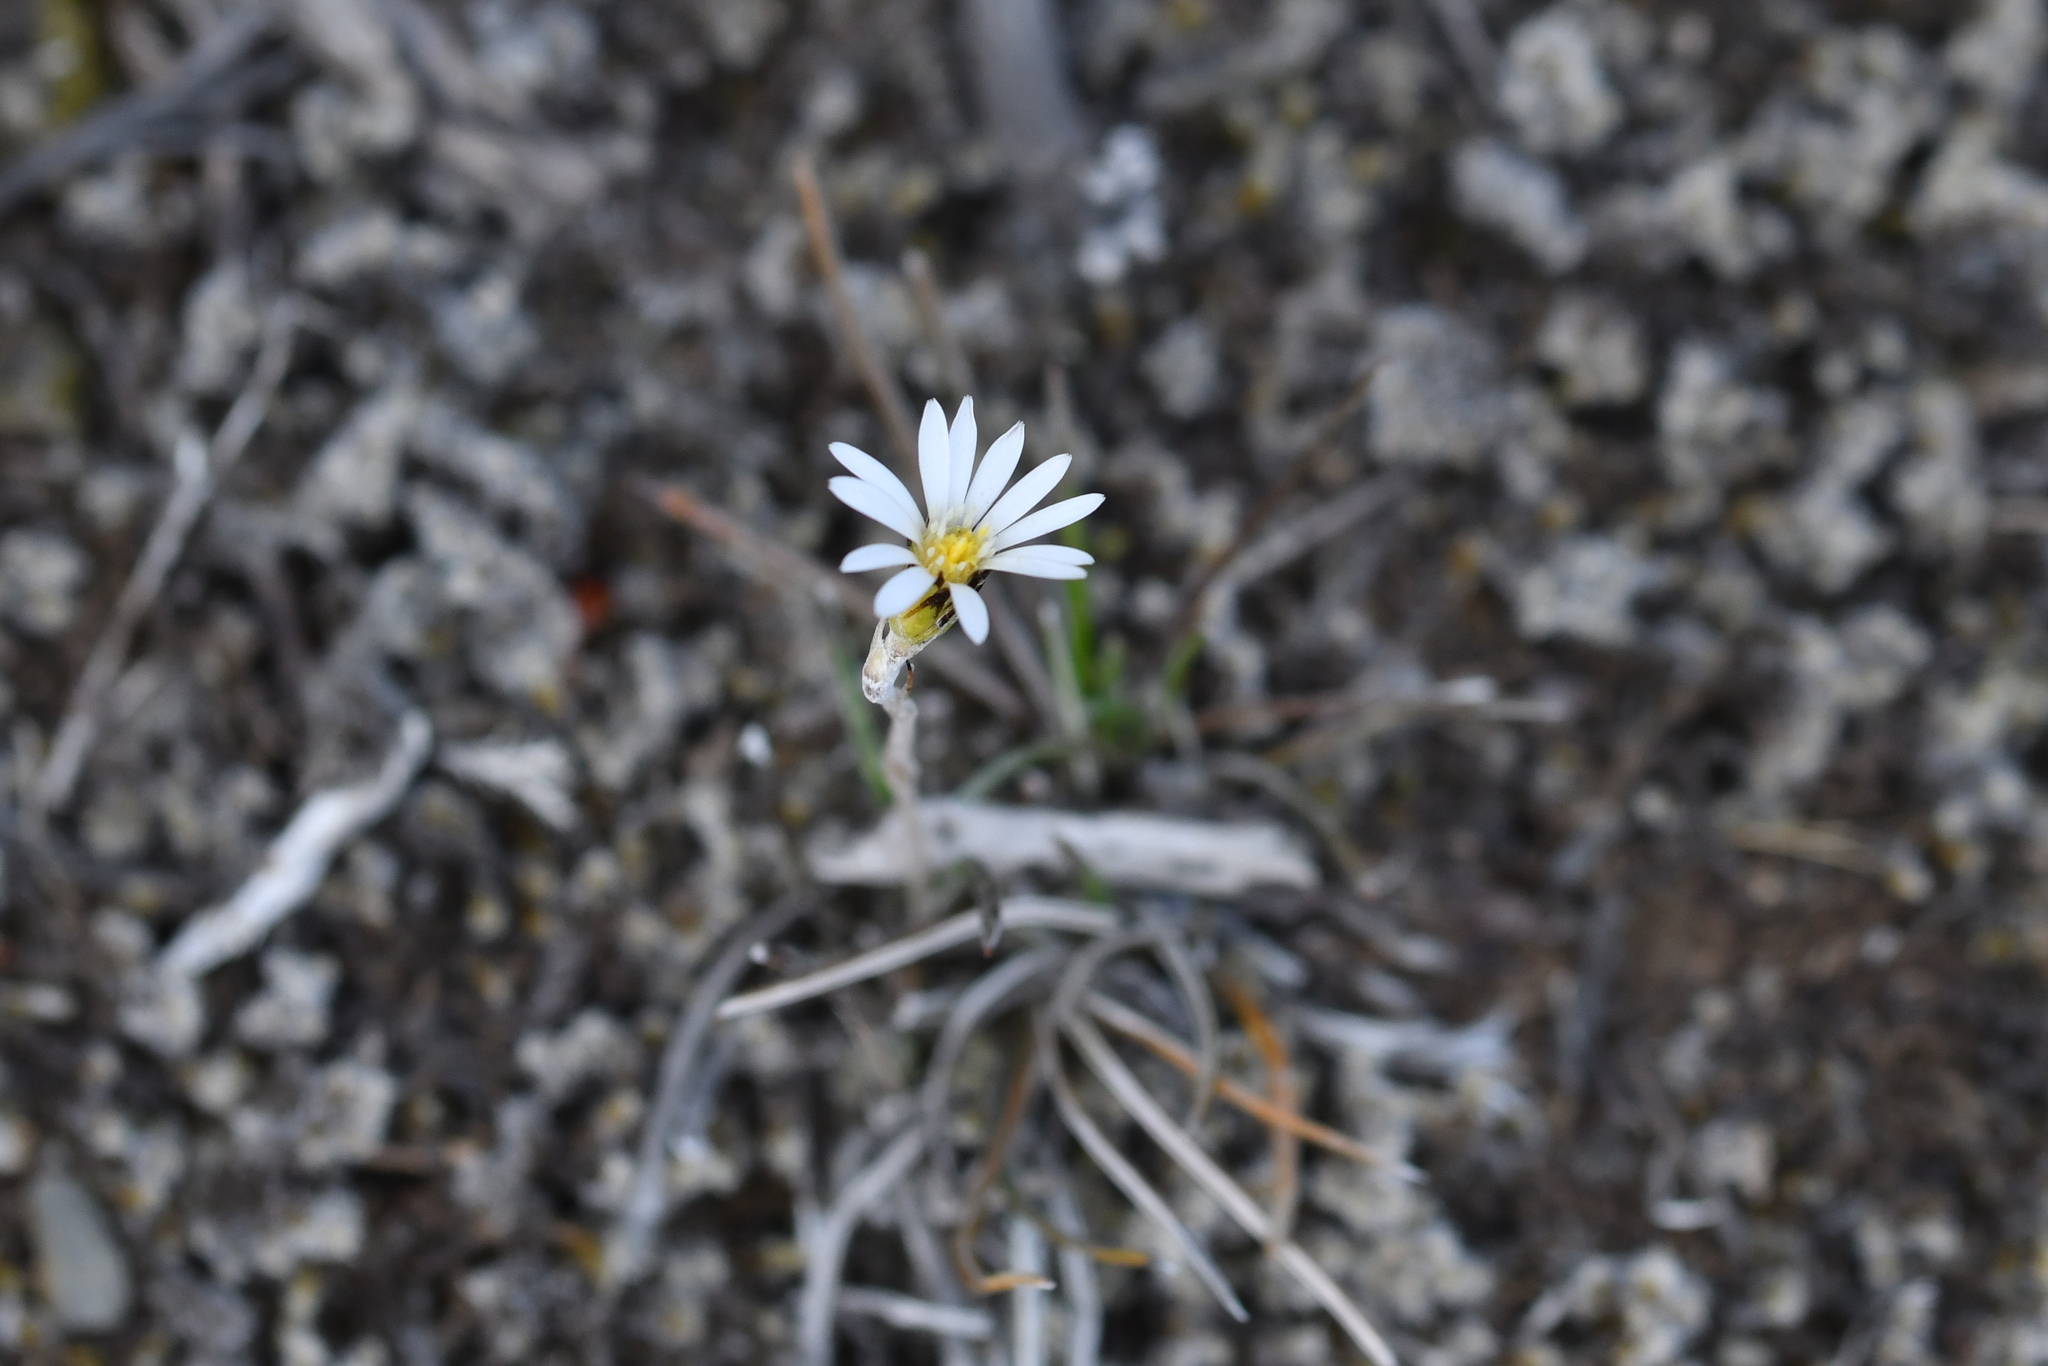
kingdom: Plantae
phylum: Tracheophyta
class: Magnoliopsida
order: Asterales
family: Asteraceae
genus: Celmisia
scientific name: Celmisia gracilenta
